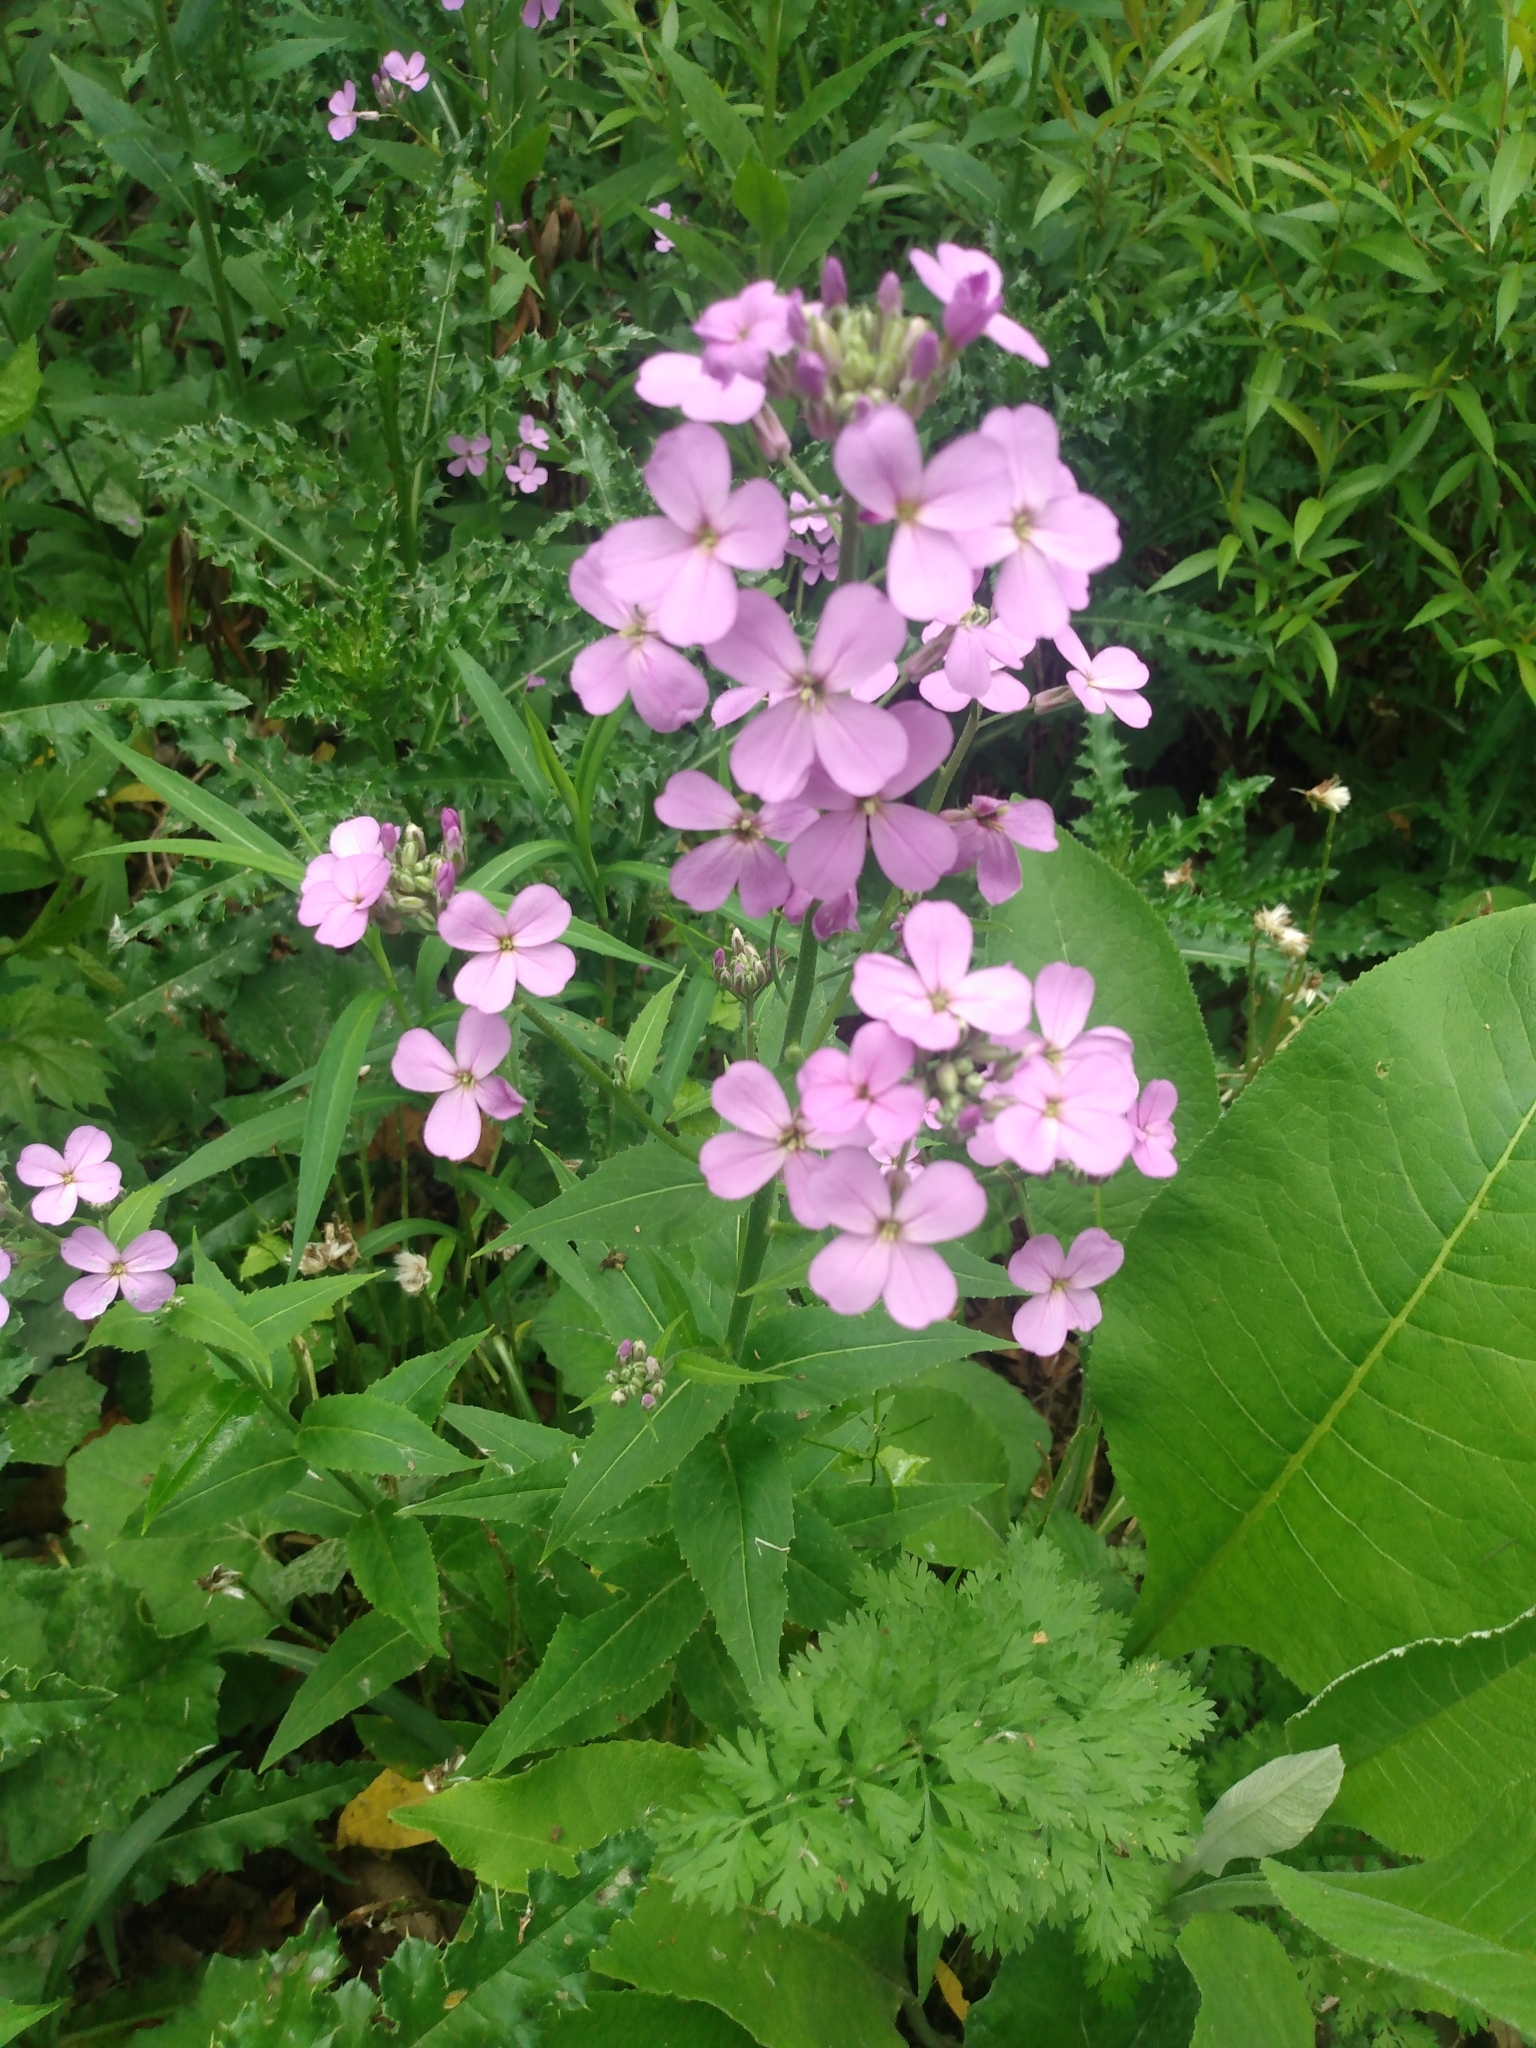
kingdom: Plantae
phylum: Tracheophyta
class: Magnoliopsida
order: Brassicales
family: Brassicaceae
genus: Hesperis
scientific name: Hesperis matronalis
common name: Dame's-violet
